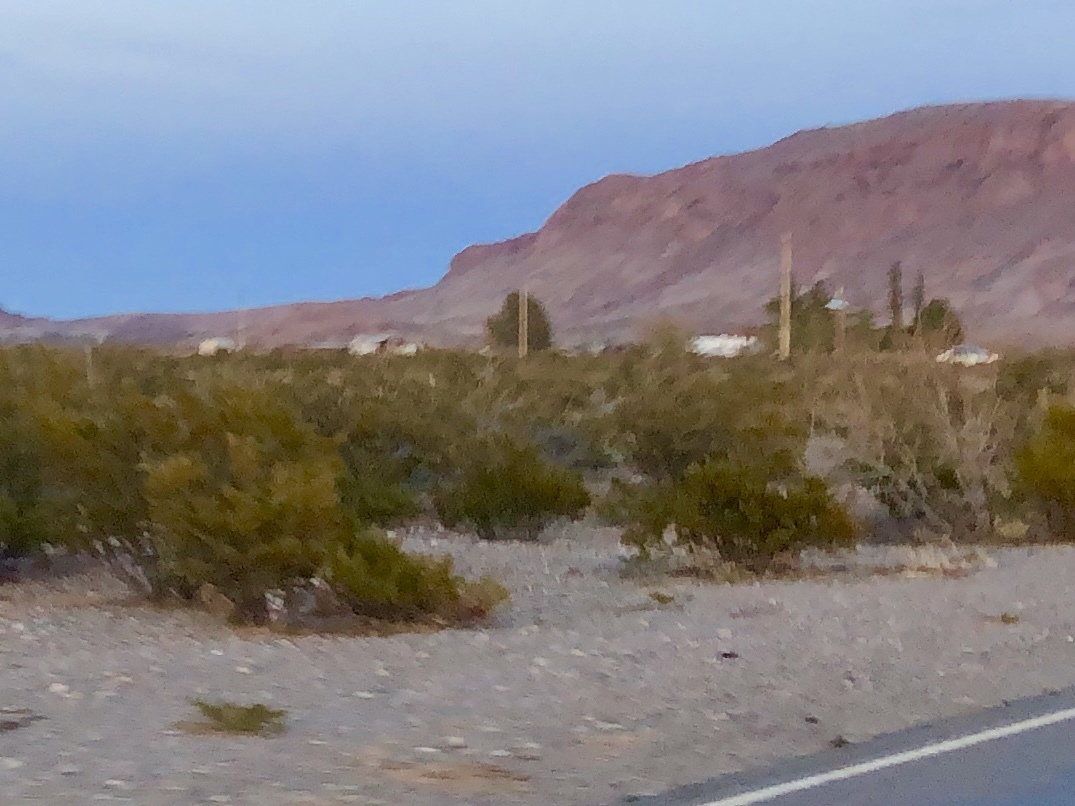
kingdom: Plantae
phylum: Tracheophyta
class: Magnoliopsida
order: Zygophyllales
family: Zygophyllaceae
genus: Larrea
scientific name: Larrea tridentata
